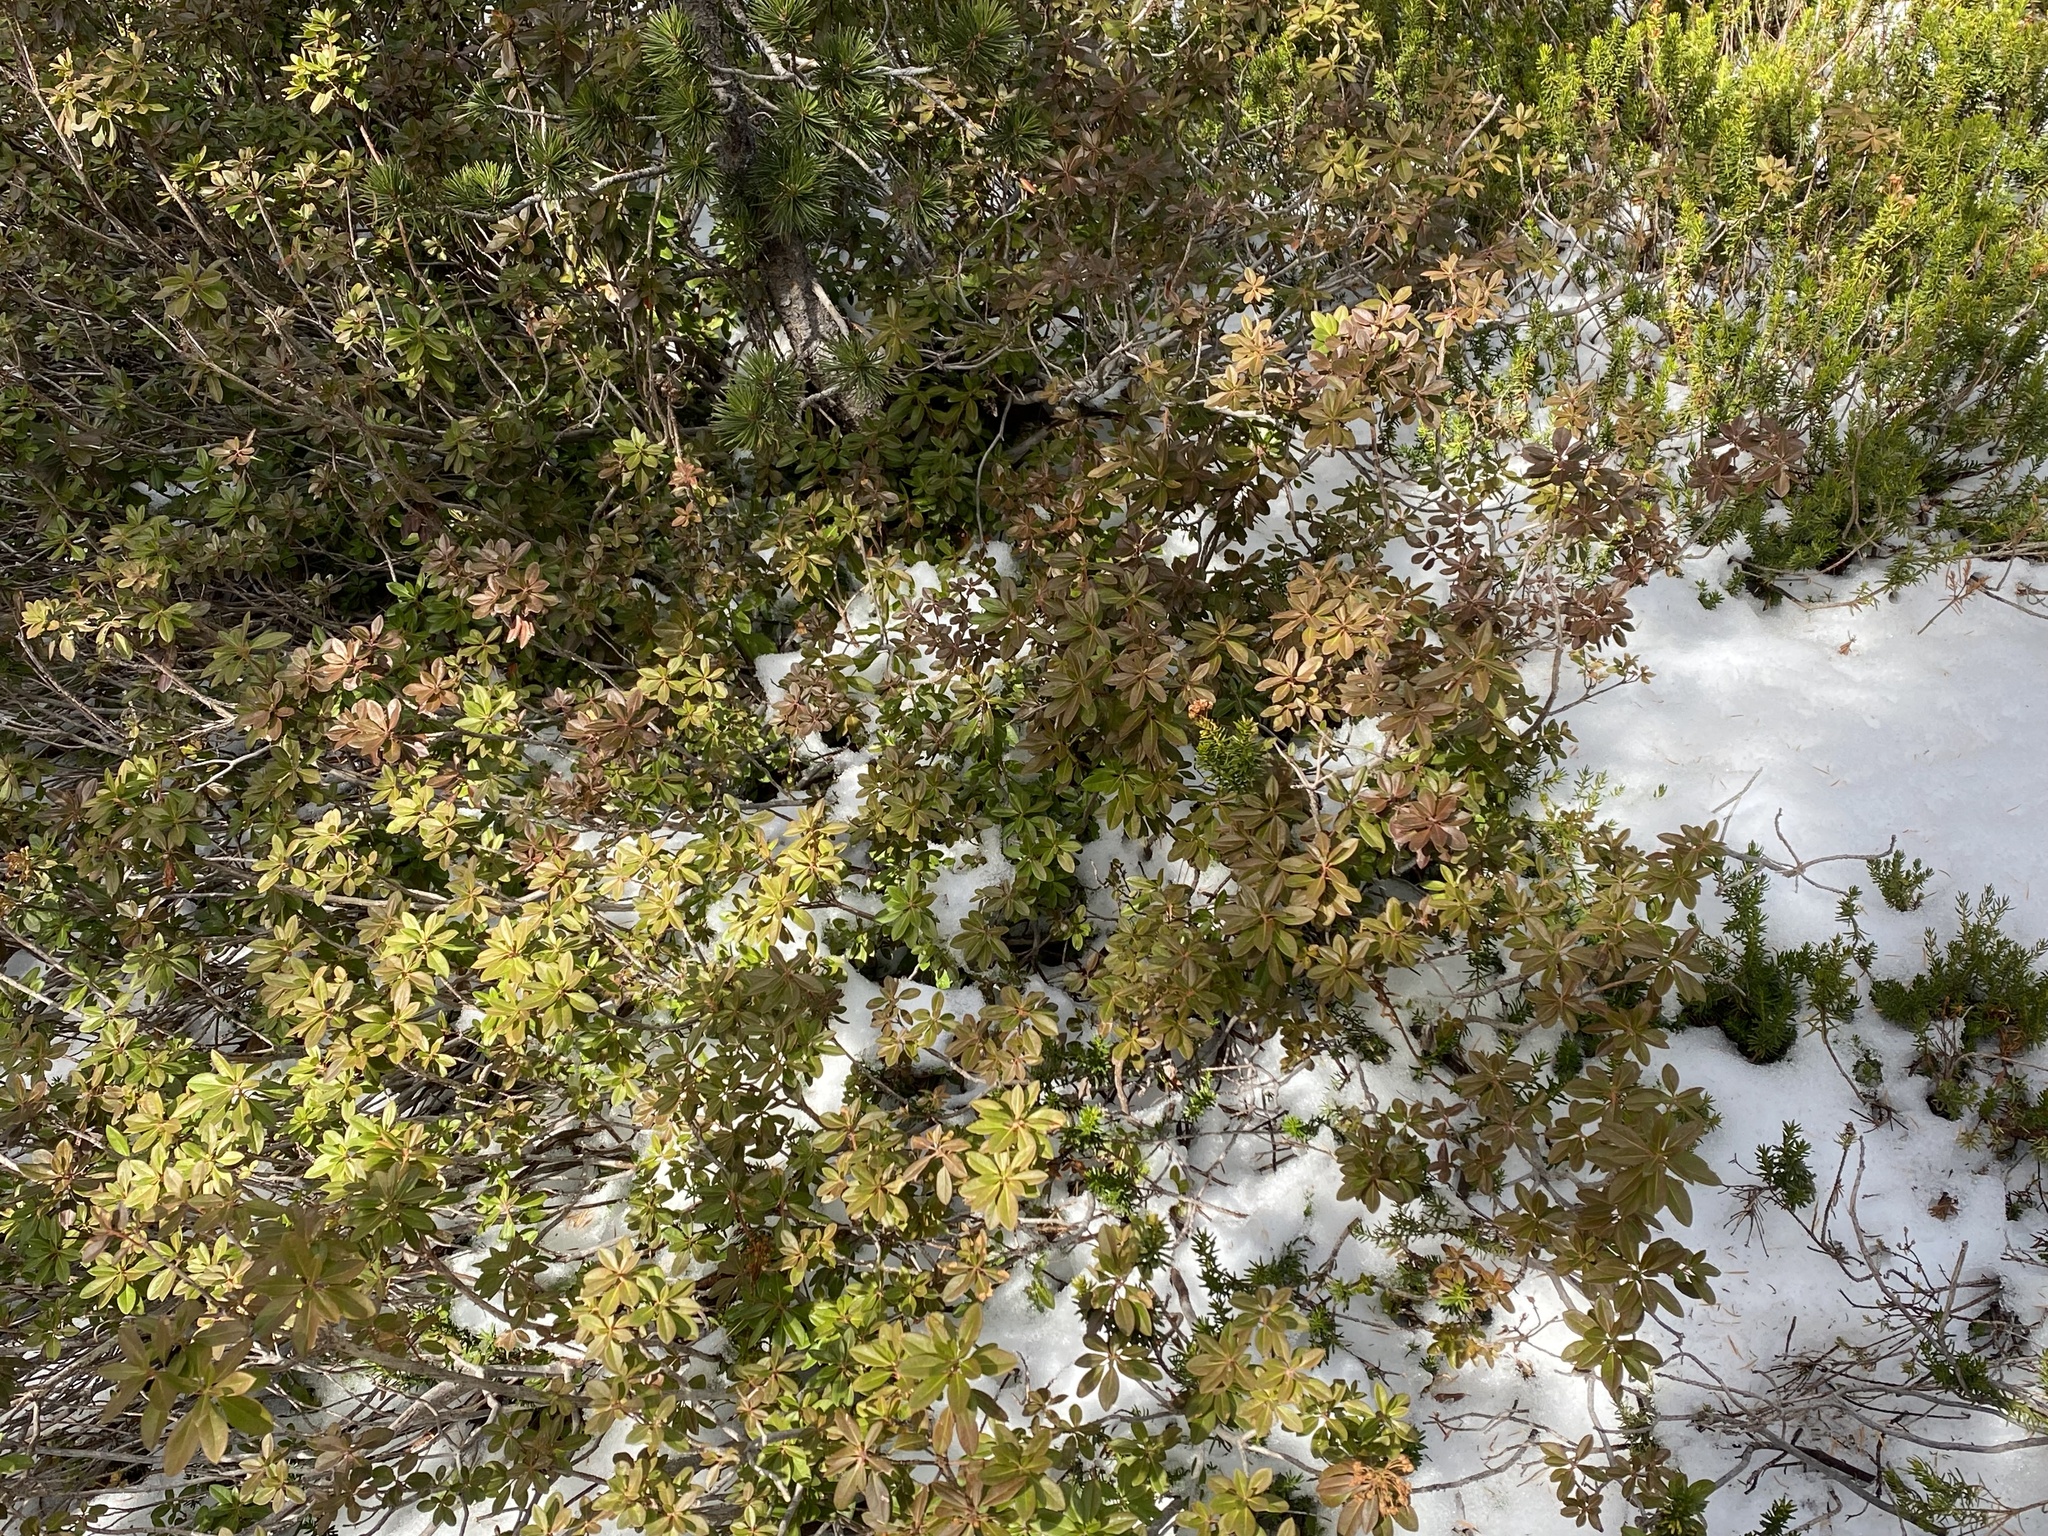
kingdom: Plantae
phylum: Tracheophyta
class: Magnoliopsida
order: Ericales
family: Ericaceae
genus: Rhododendron
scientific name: Rhododendron columbianum
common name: Western labrador tea
